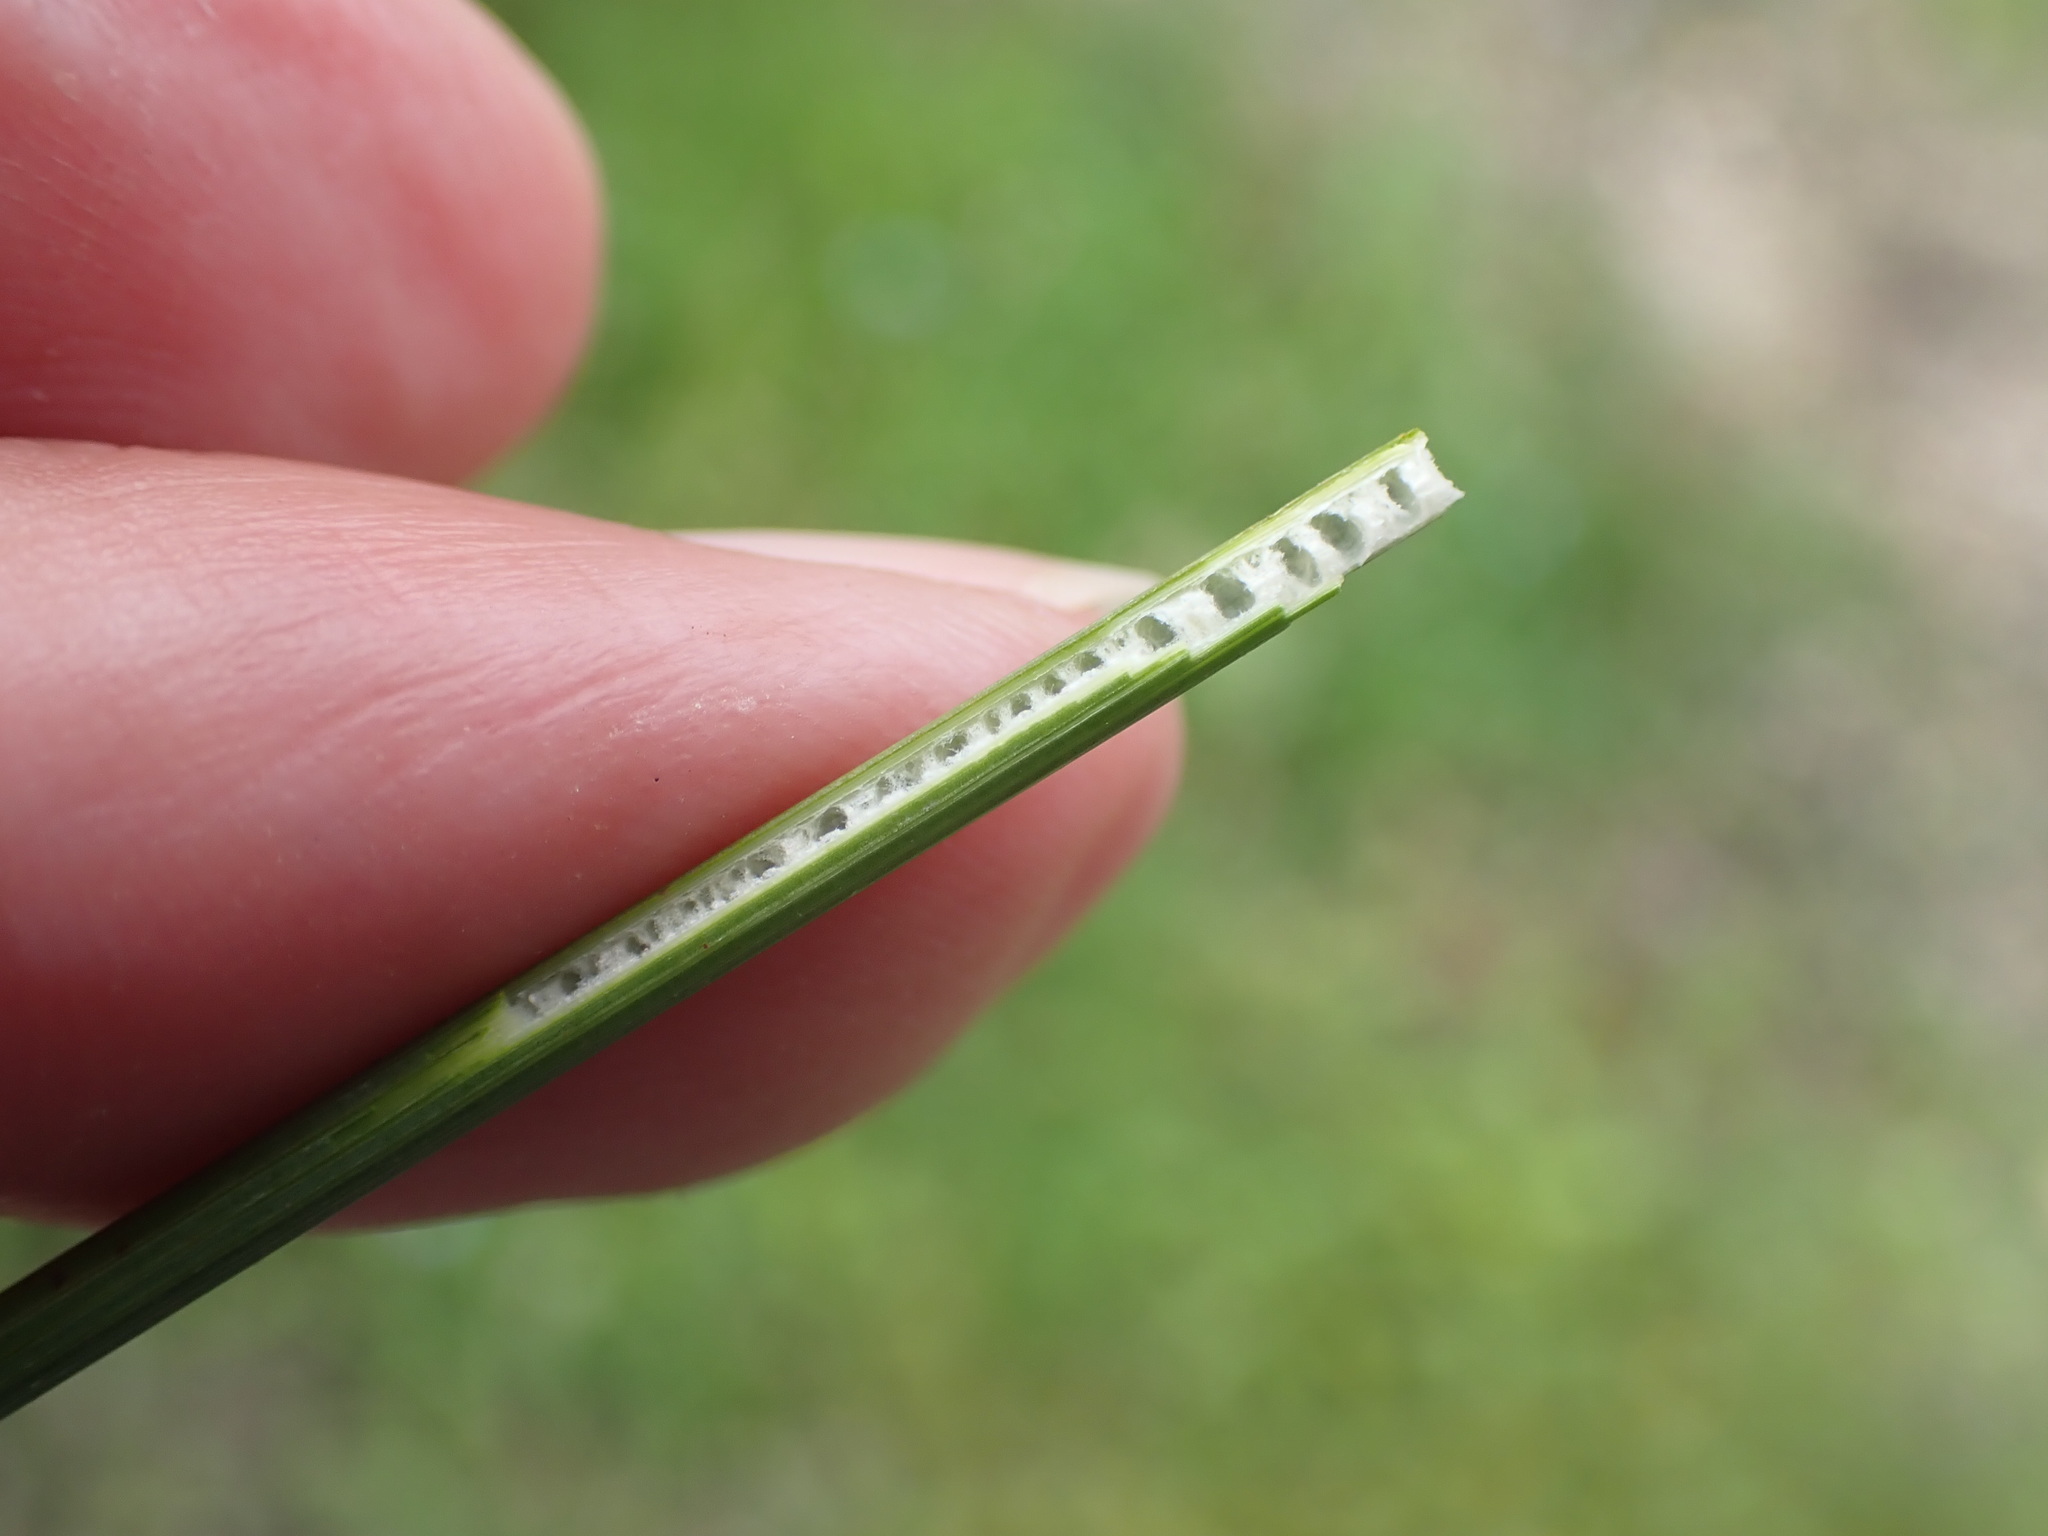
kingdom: Plantae
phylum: Tracheophyta
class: Liliopsida
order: Poales
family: Juncaceae
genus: Juncus
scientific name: Juncus inflexus
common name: Hard rush
